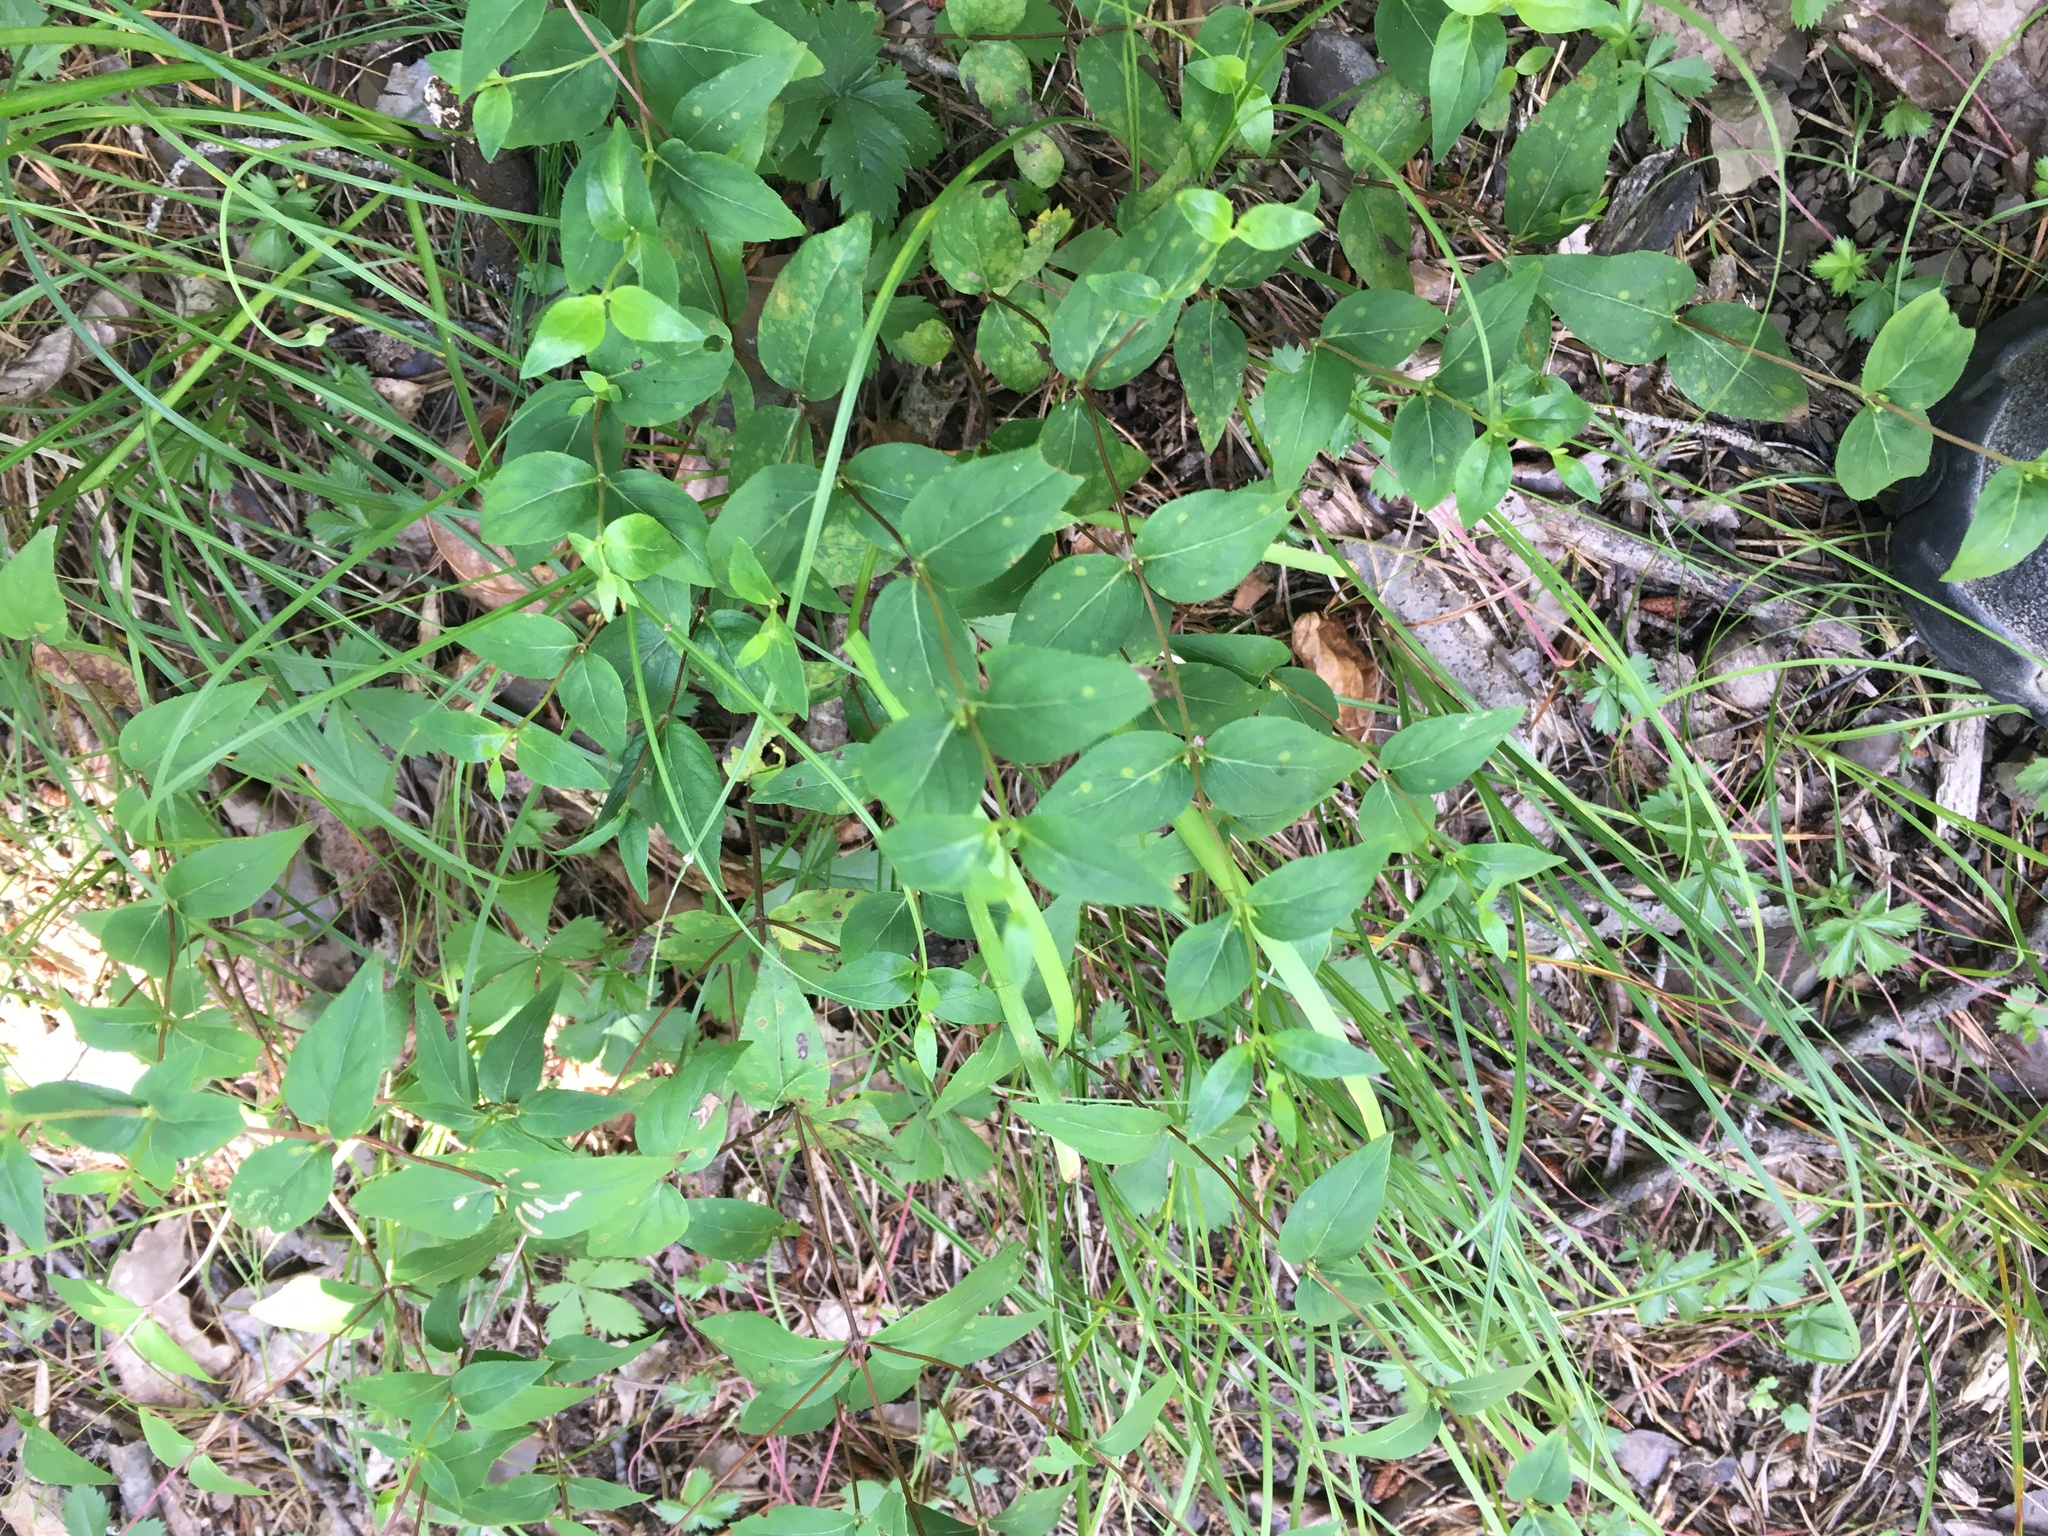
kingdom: Plantae
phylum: Tracheophyta
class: Magnoliopsida
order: Lamiales
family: Lamiaceae
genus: Cunila
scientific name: Cunila origanoides
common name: American dittany
